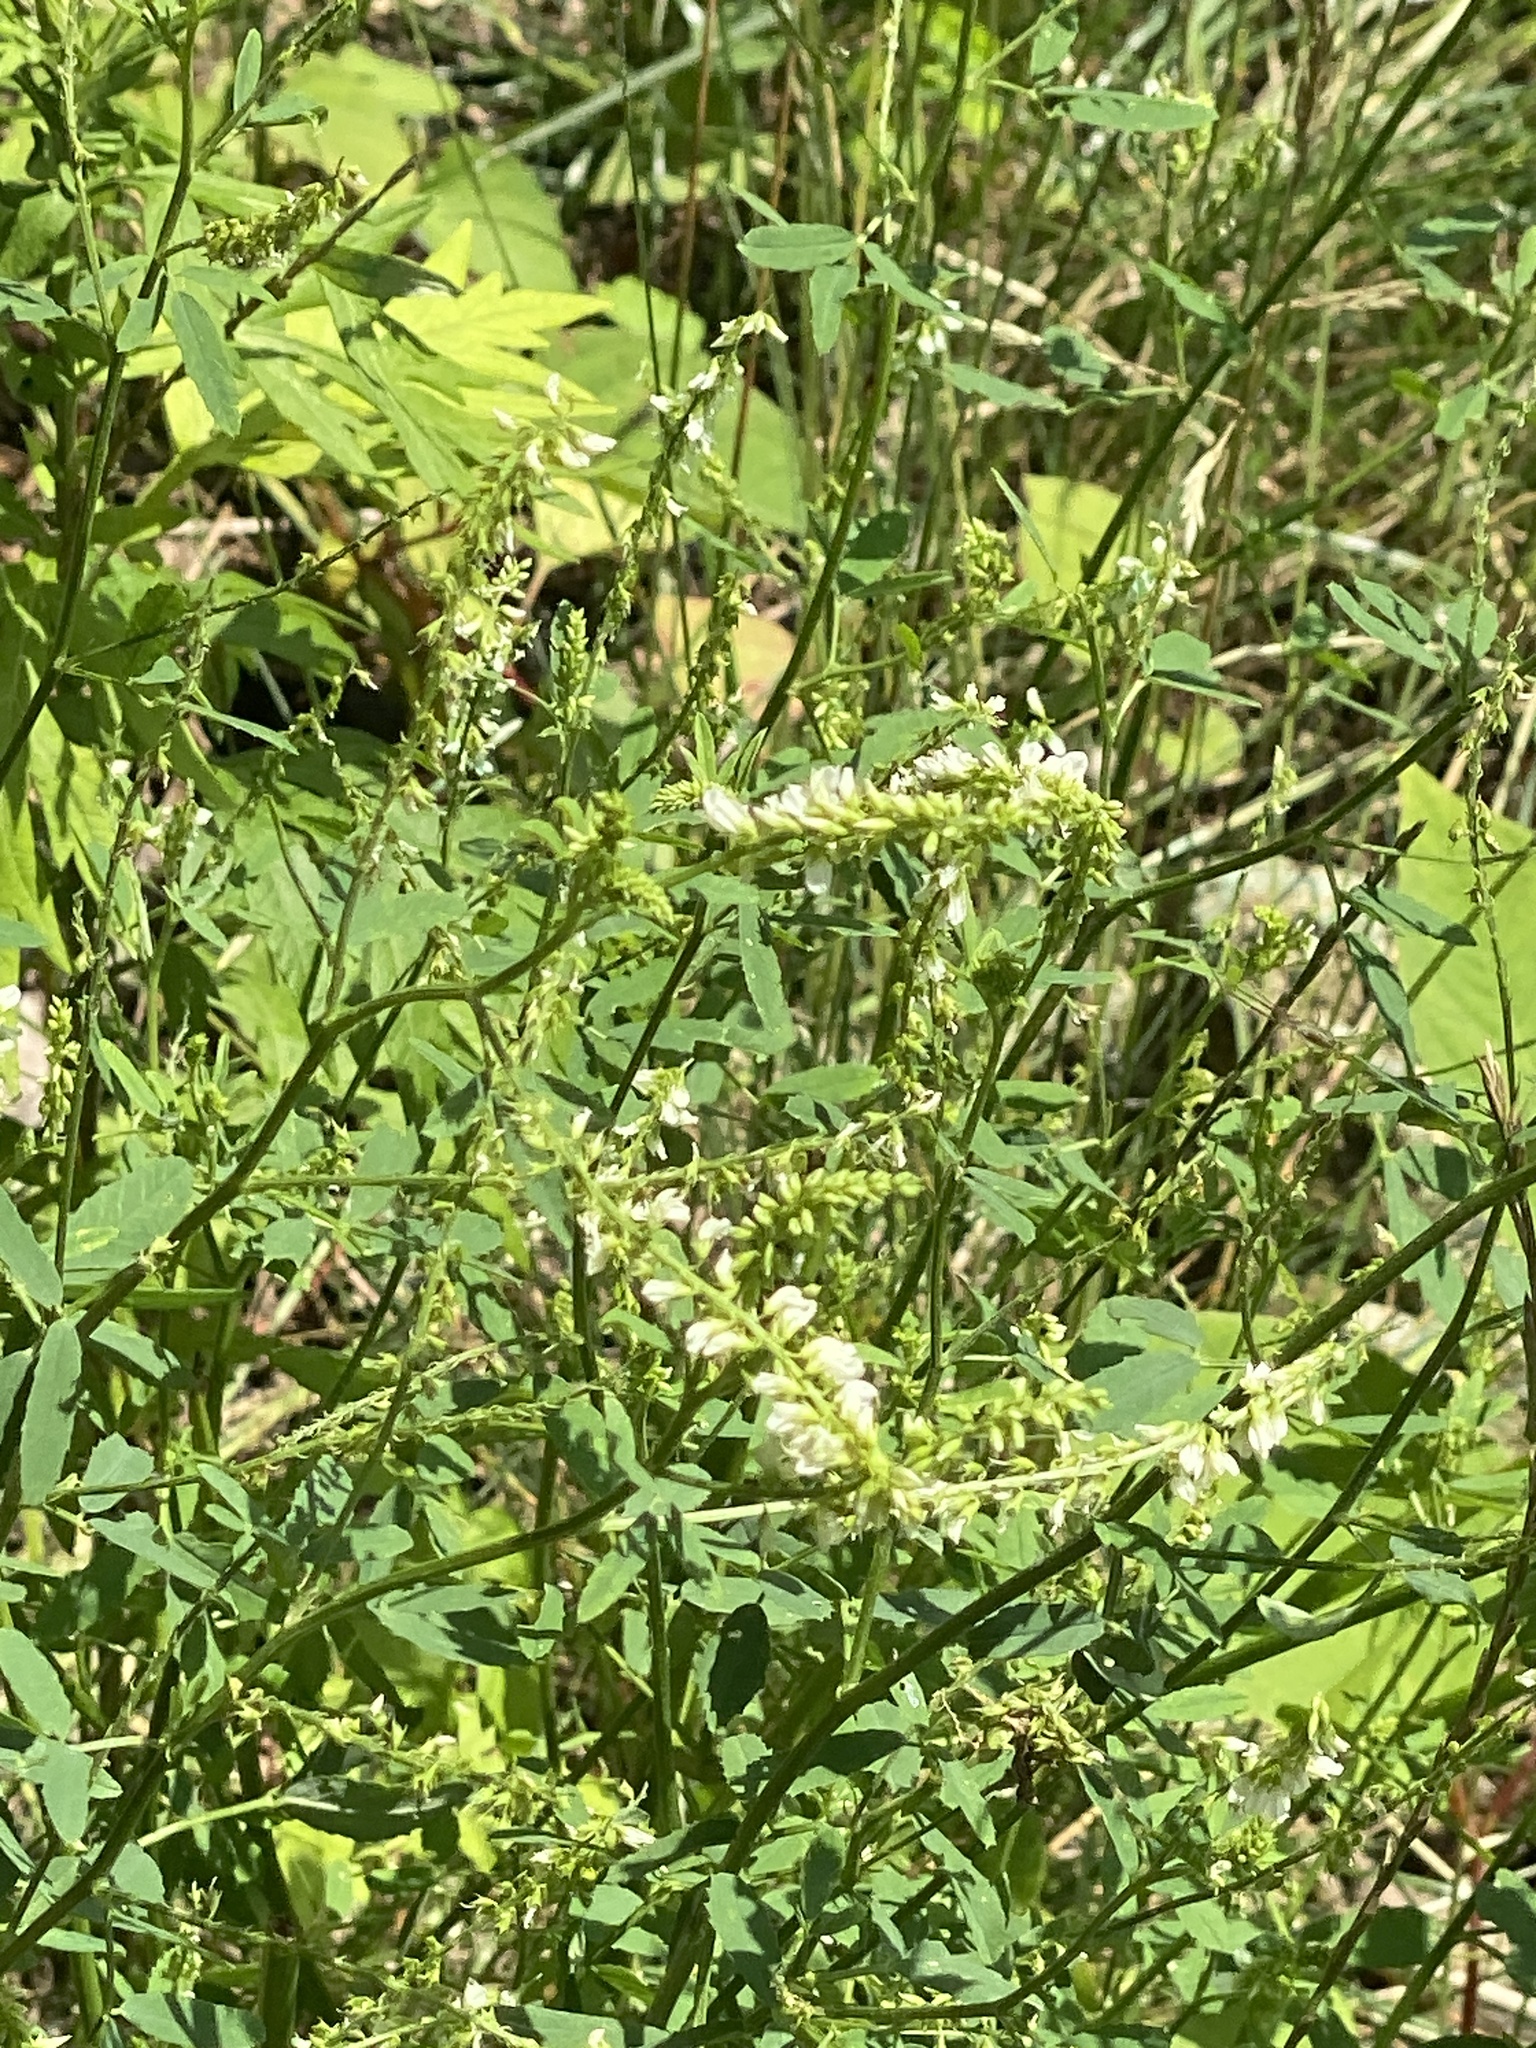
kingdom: Plantae
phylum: Tracheophyta
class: Magnoliopsida
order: Fabales
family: Fabaceae
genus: Melilotus
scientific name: Melilotus albus
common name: White melilot
